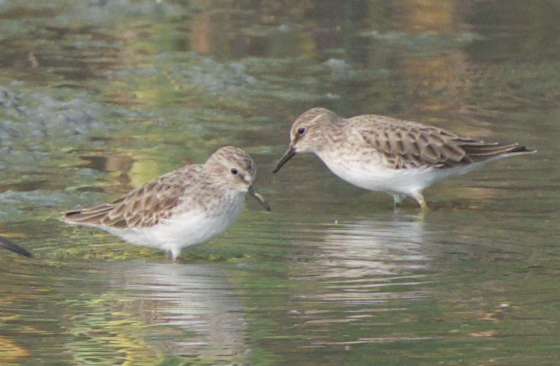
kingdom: Animalia
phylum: Chordata
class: Aves
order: Charadriiformes
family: Scolopacidae
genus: Calidris
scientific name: Calidris minutilla
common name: Least sandpiper
